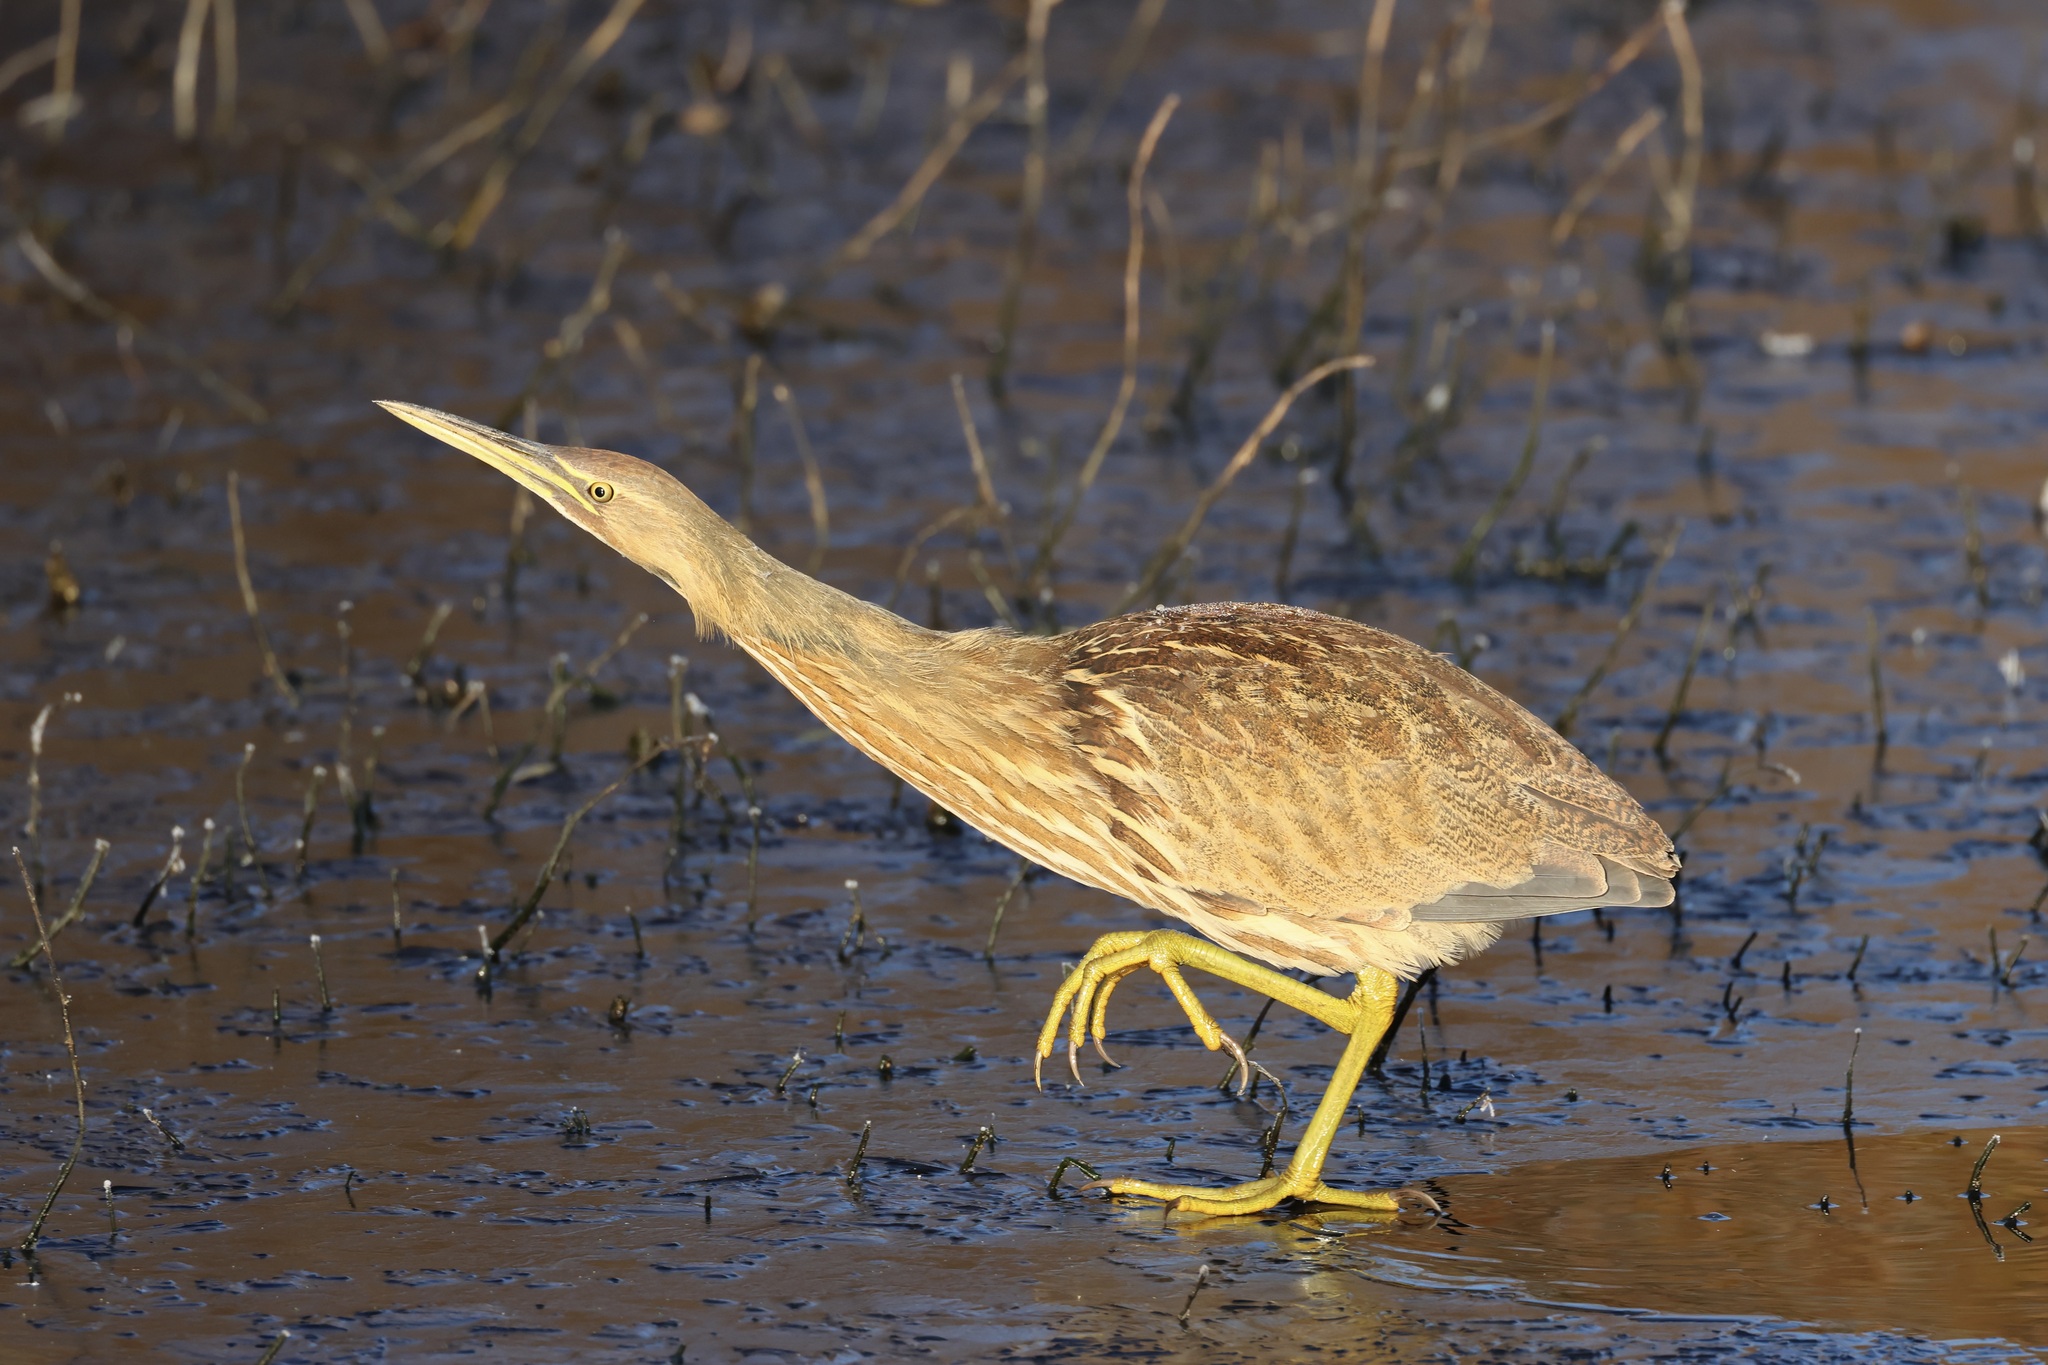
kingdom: Animalia
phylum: Chordata
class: Aves
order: Pelecaniformes
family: Ardeidae
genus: Botaurus
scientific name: Botaurus lentiginosus
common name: American bittern
